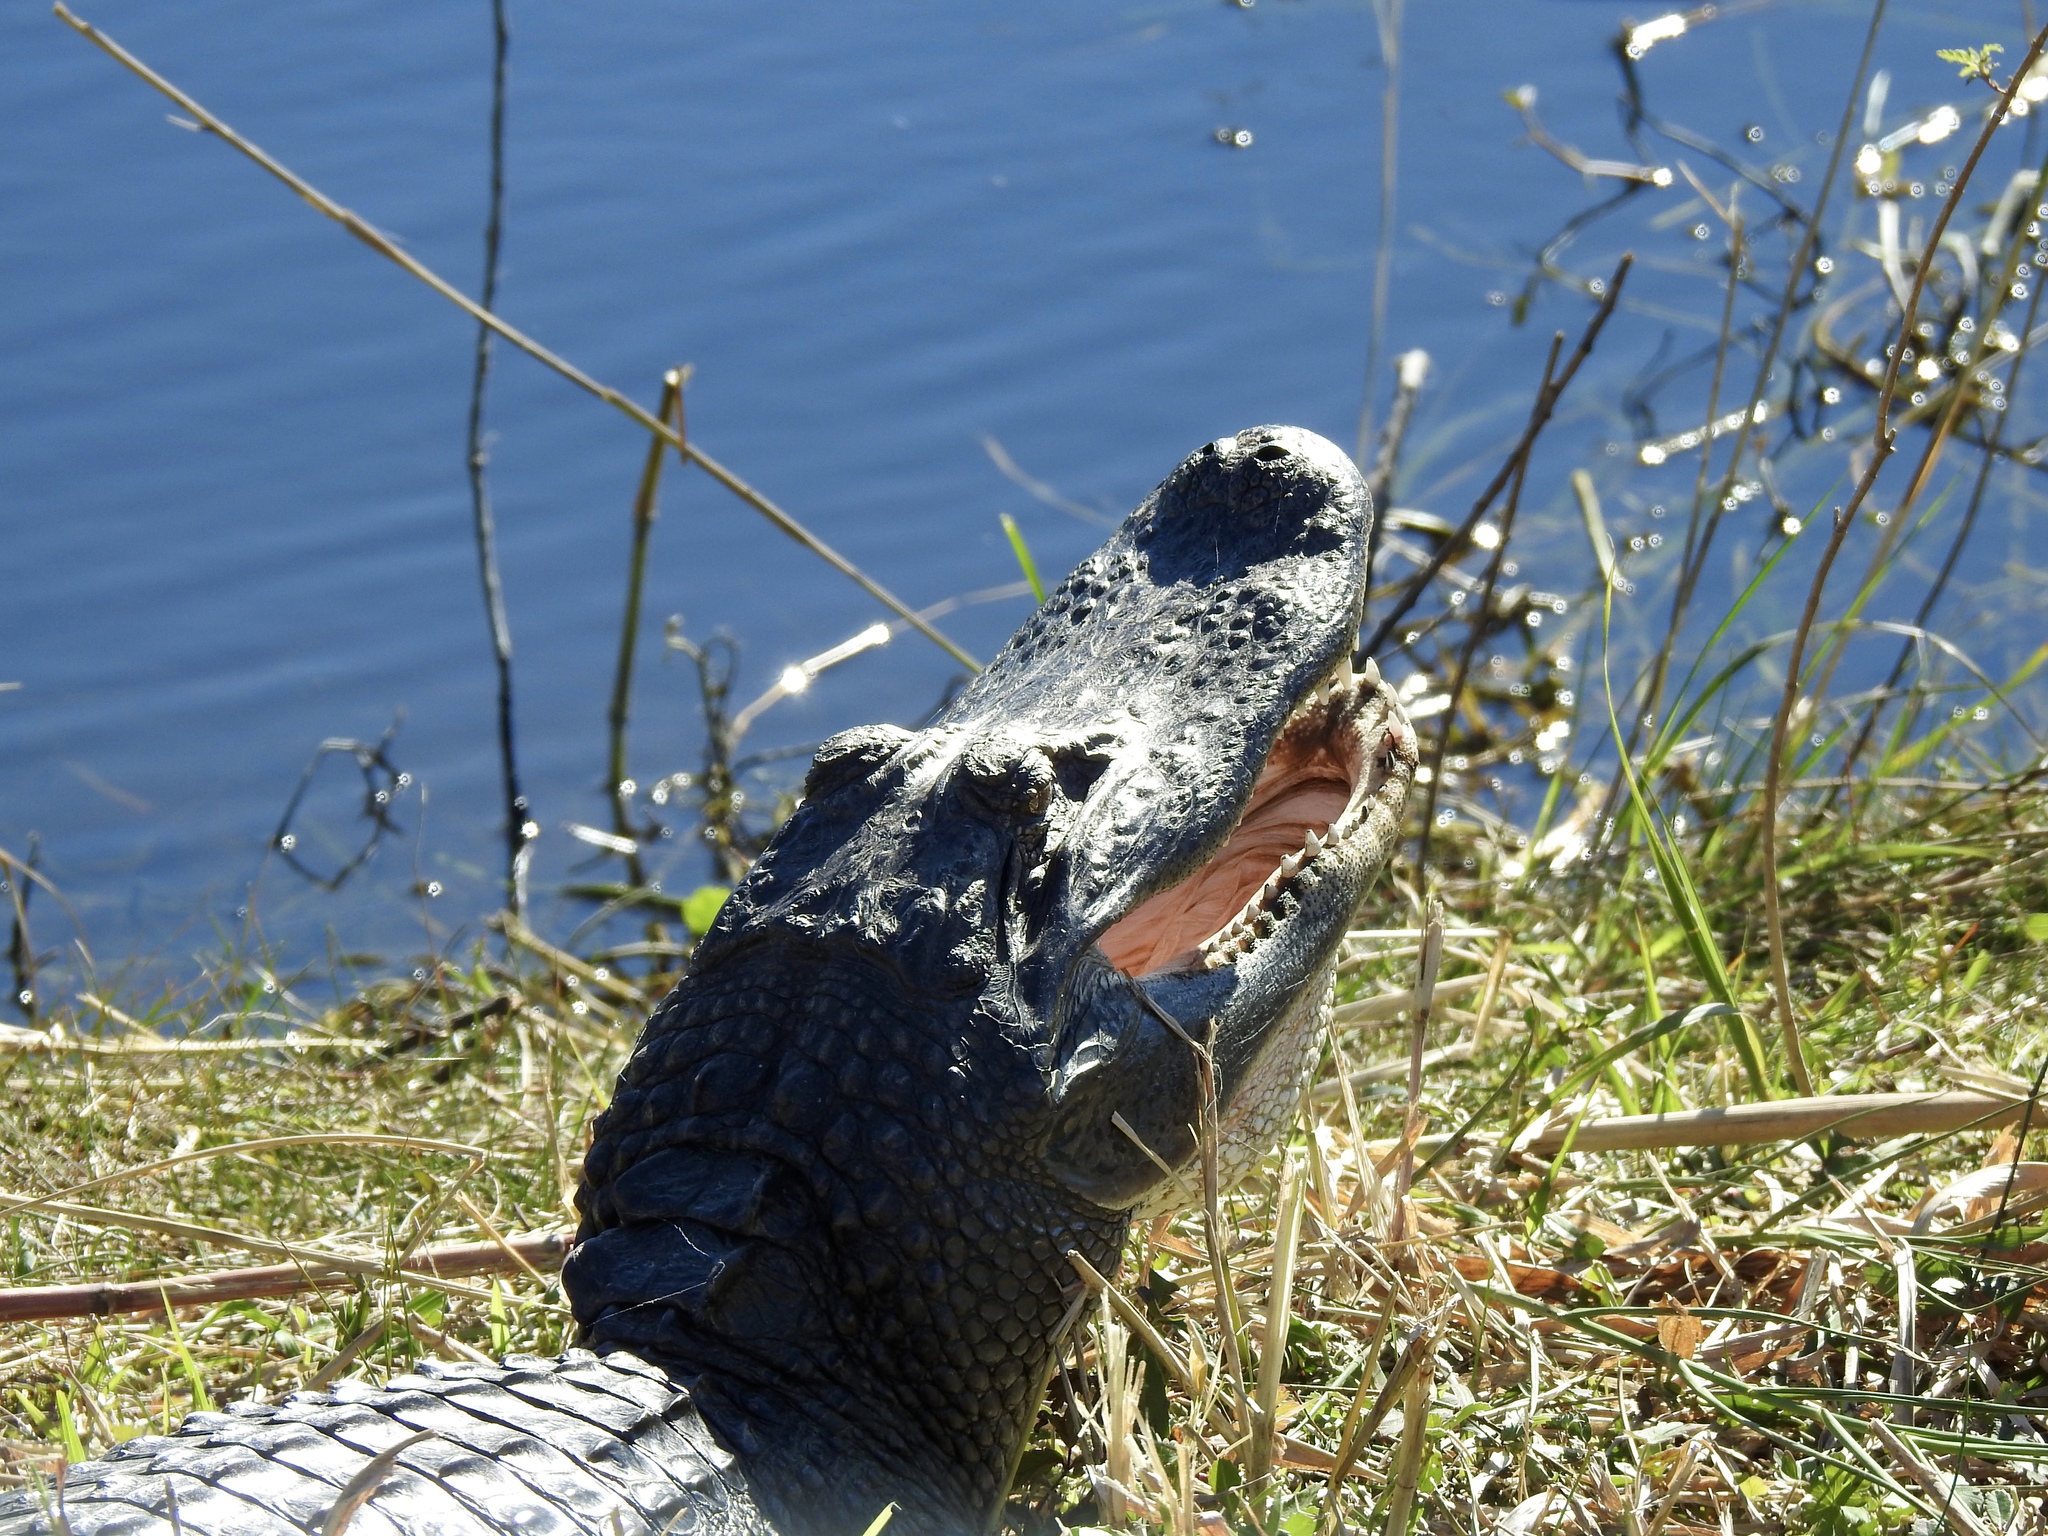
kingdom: Animalia
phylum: Chordata
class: Crocodylia
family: Alligatoridae
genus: Alligator
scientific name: Alligator mississippiensis
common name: American alligator
